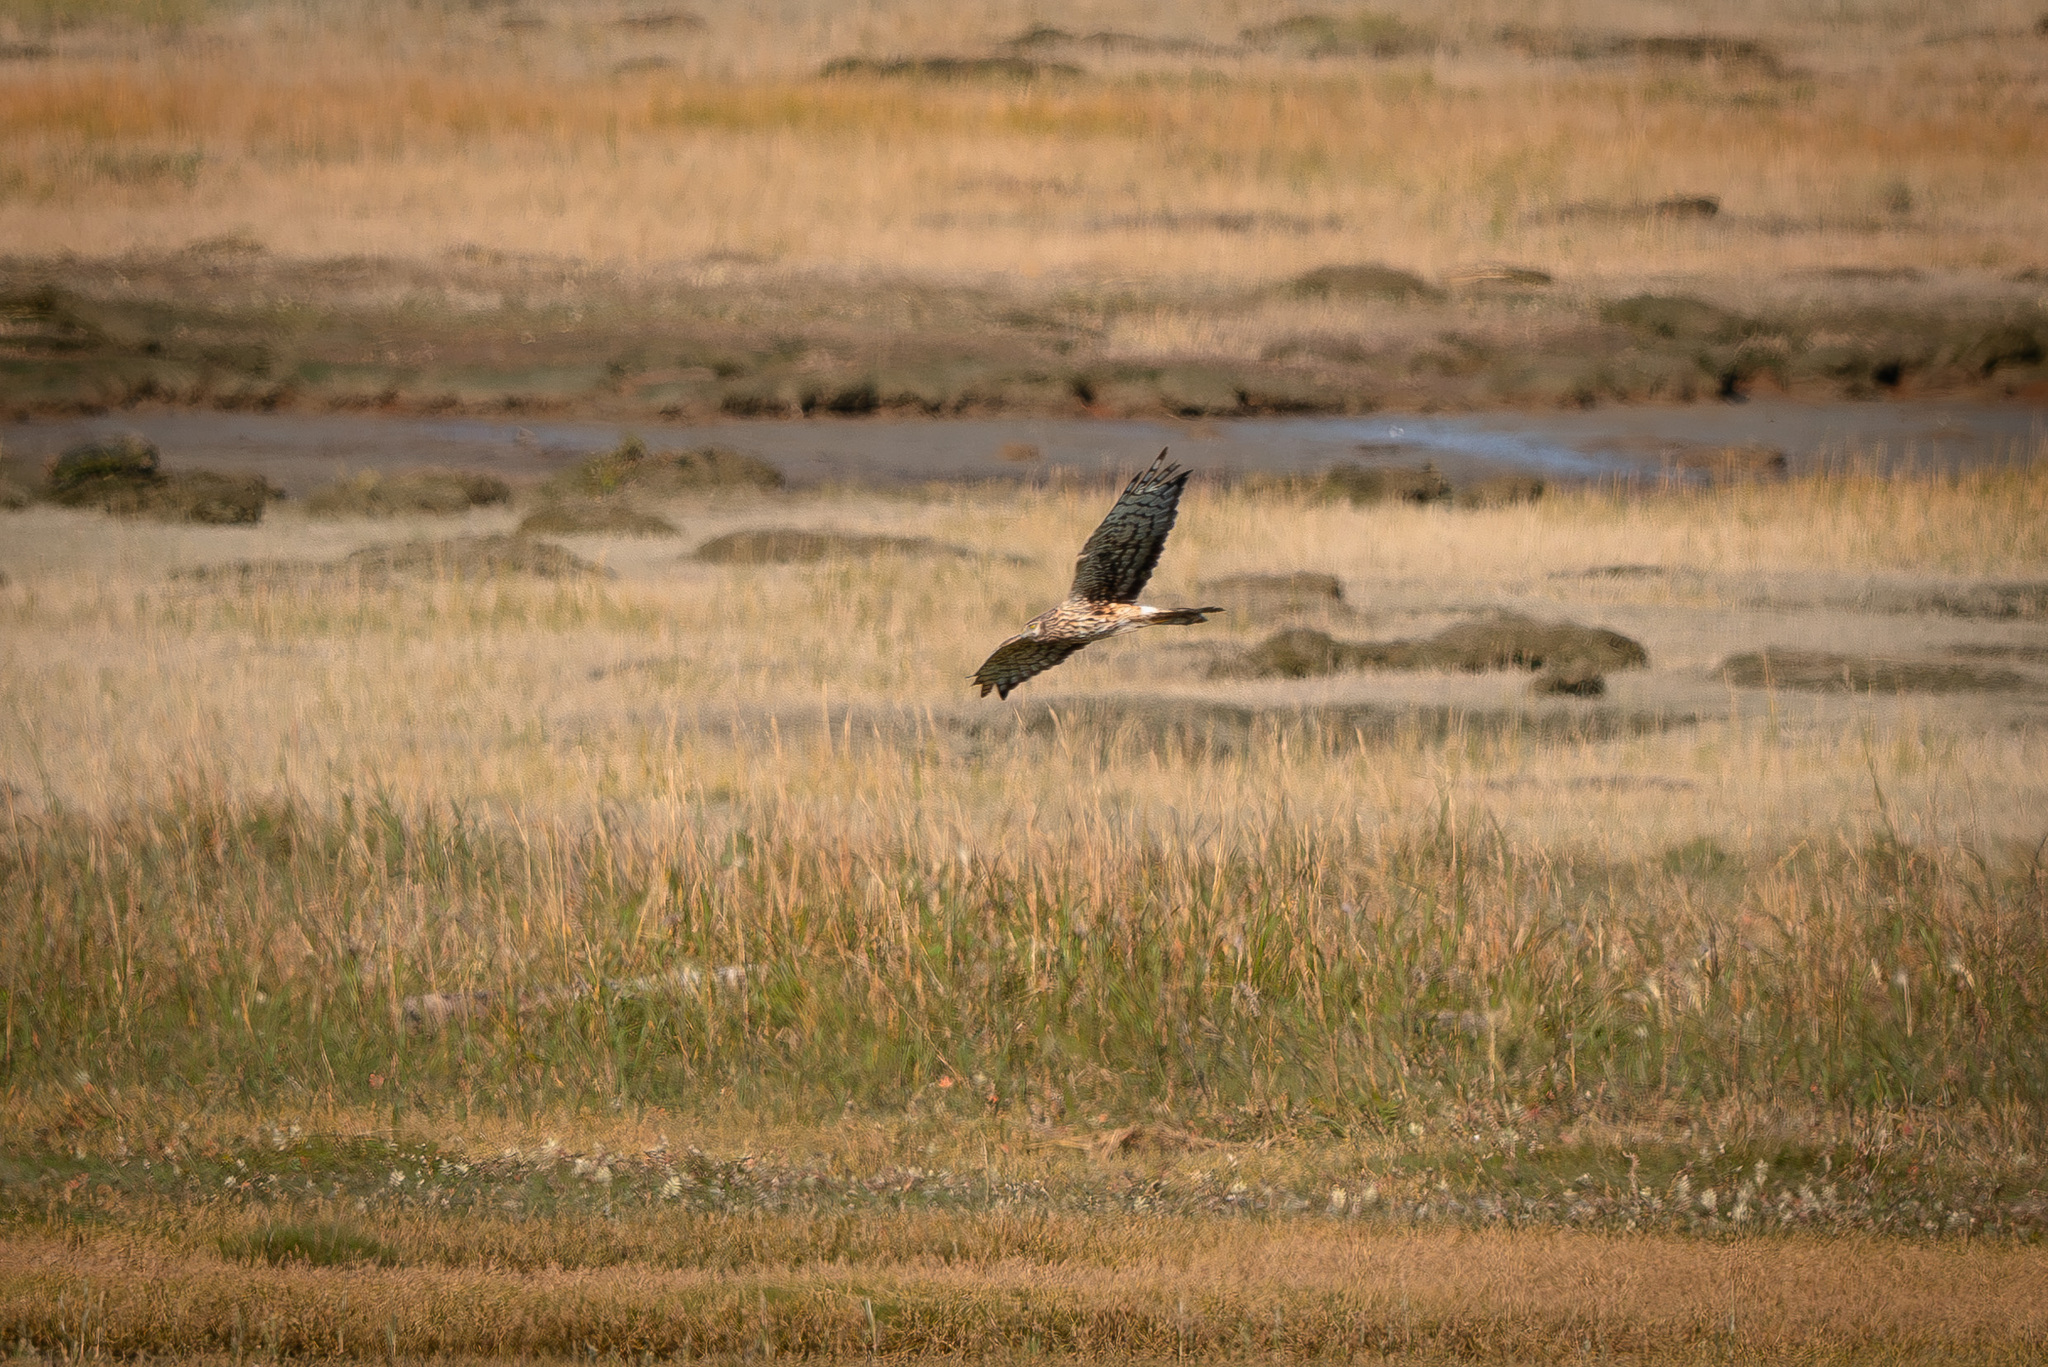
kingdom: Animalia
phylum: Chordata
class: Aves
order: Accipitriformes
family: Accipitridae
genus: Circus
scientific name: Circus cyaneus
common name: Hen harrier
